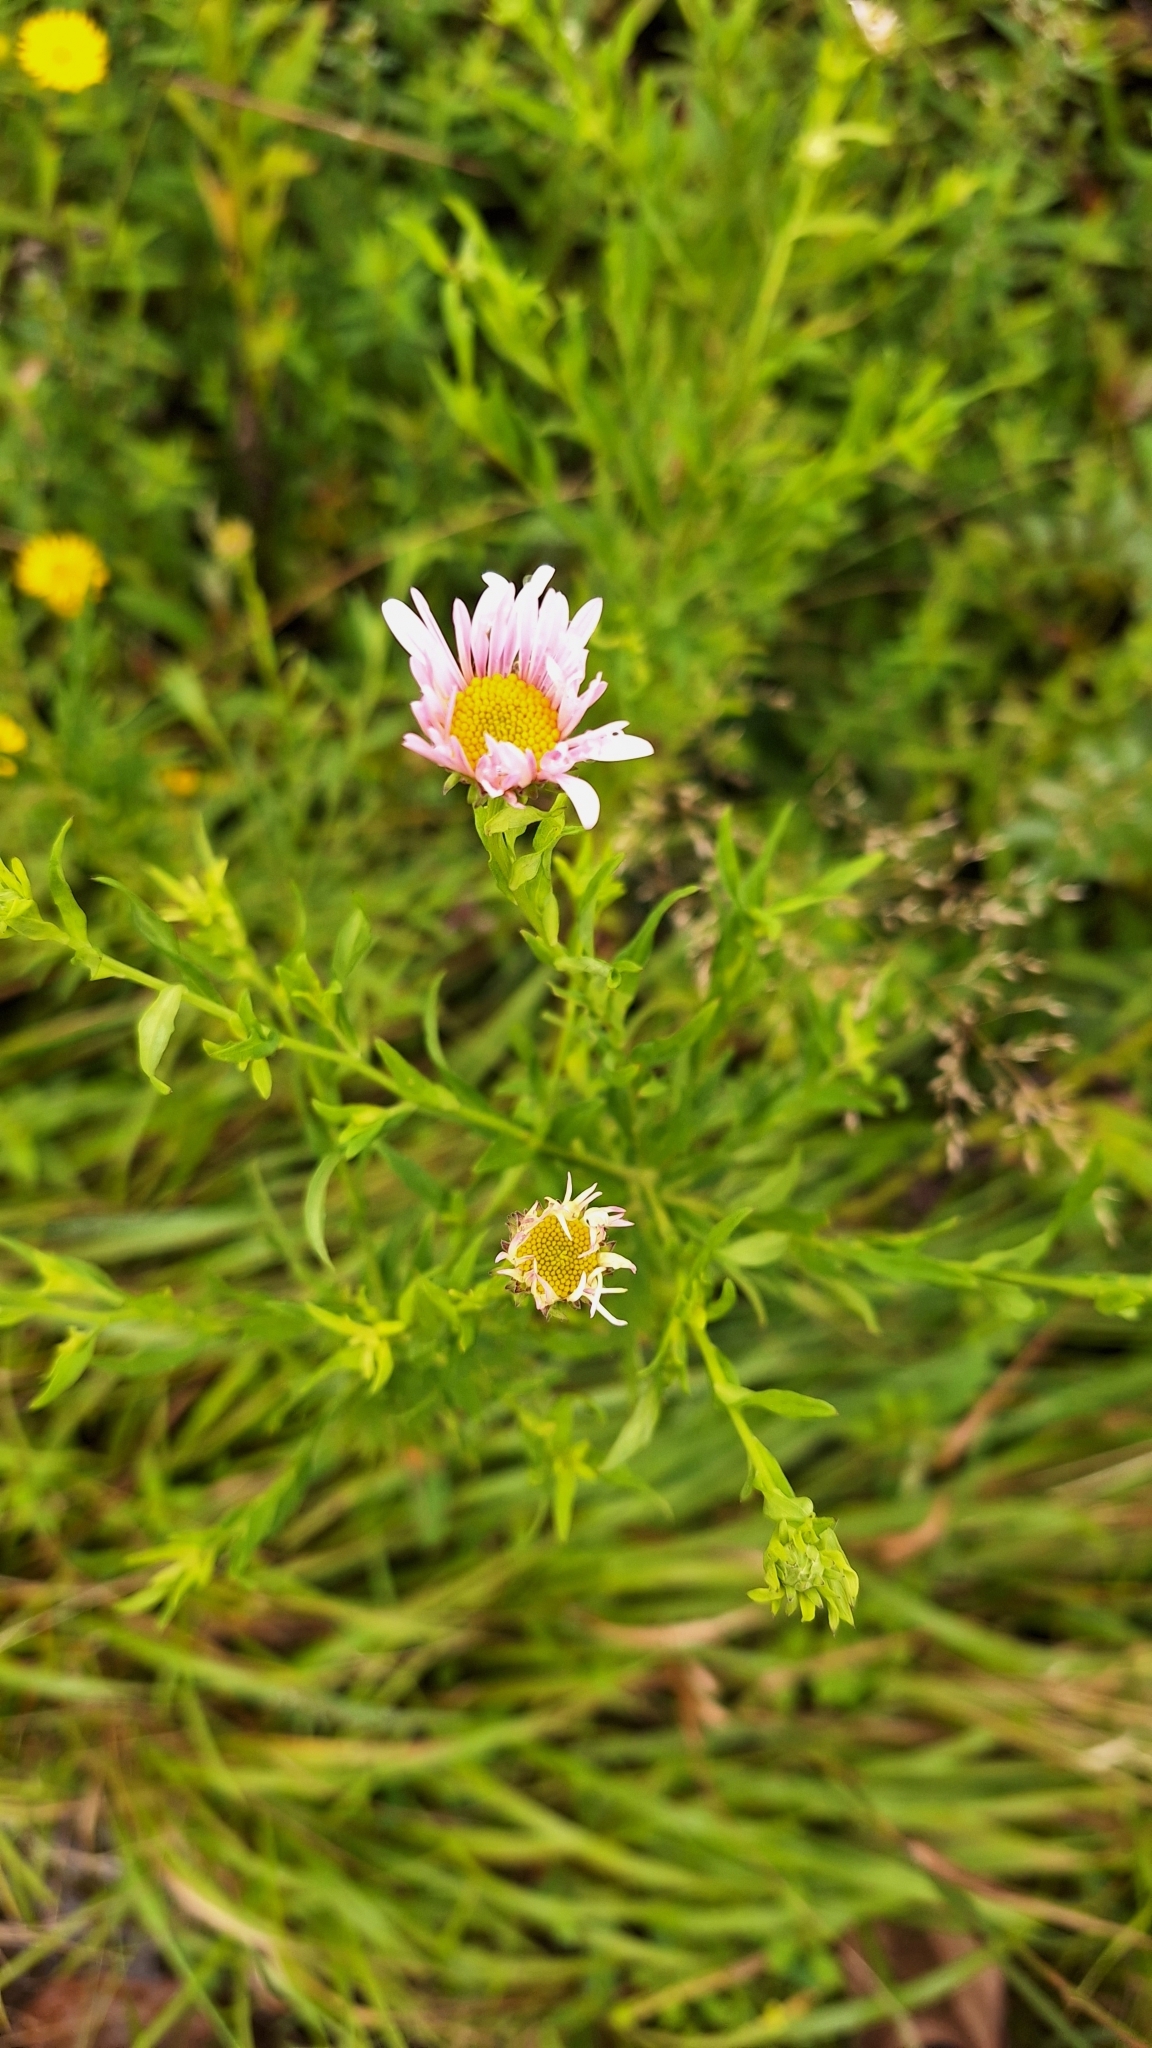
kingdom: Plantae
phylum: Tracheophyta
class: Magnoliopsida
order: Asterales
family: Asteraceae
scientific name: Asteraceae
